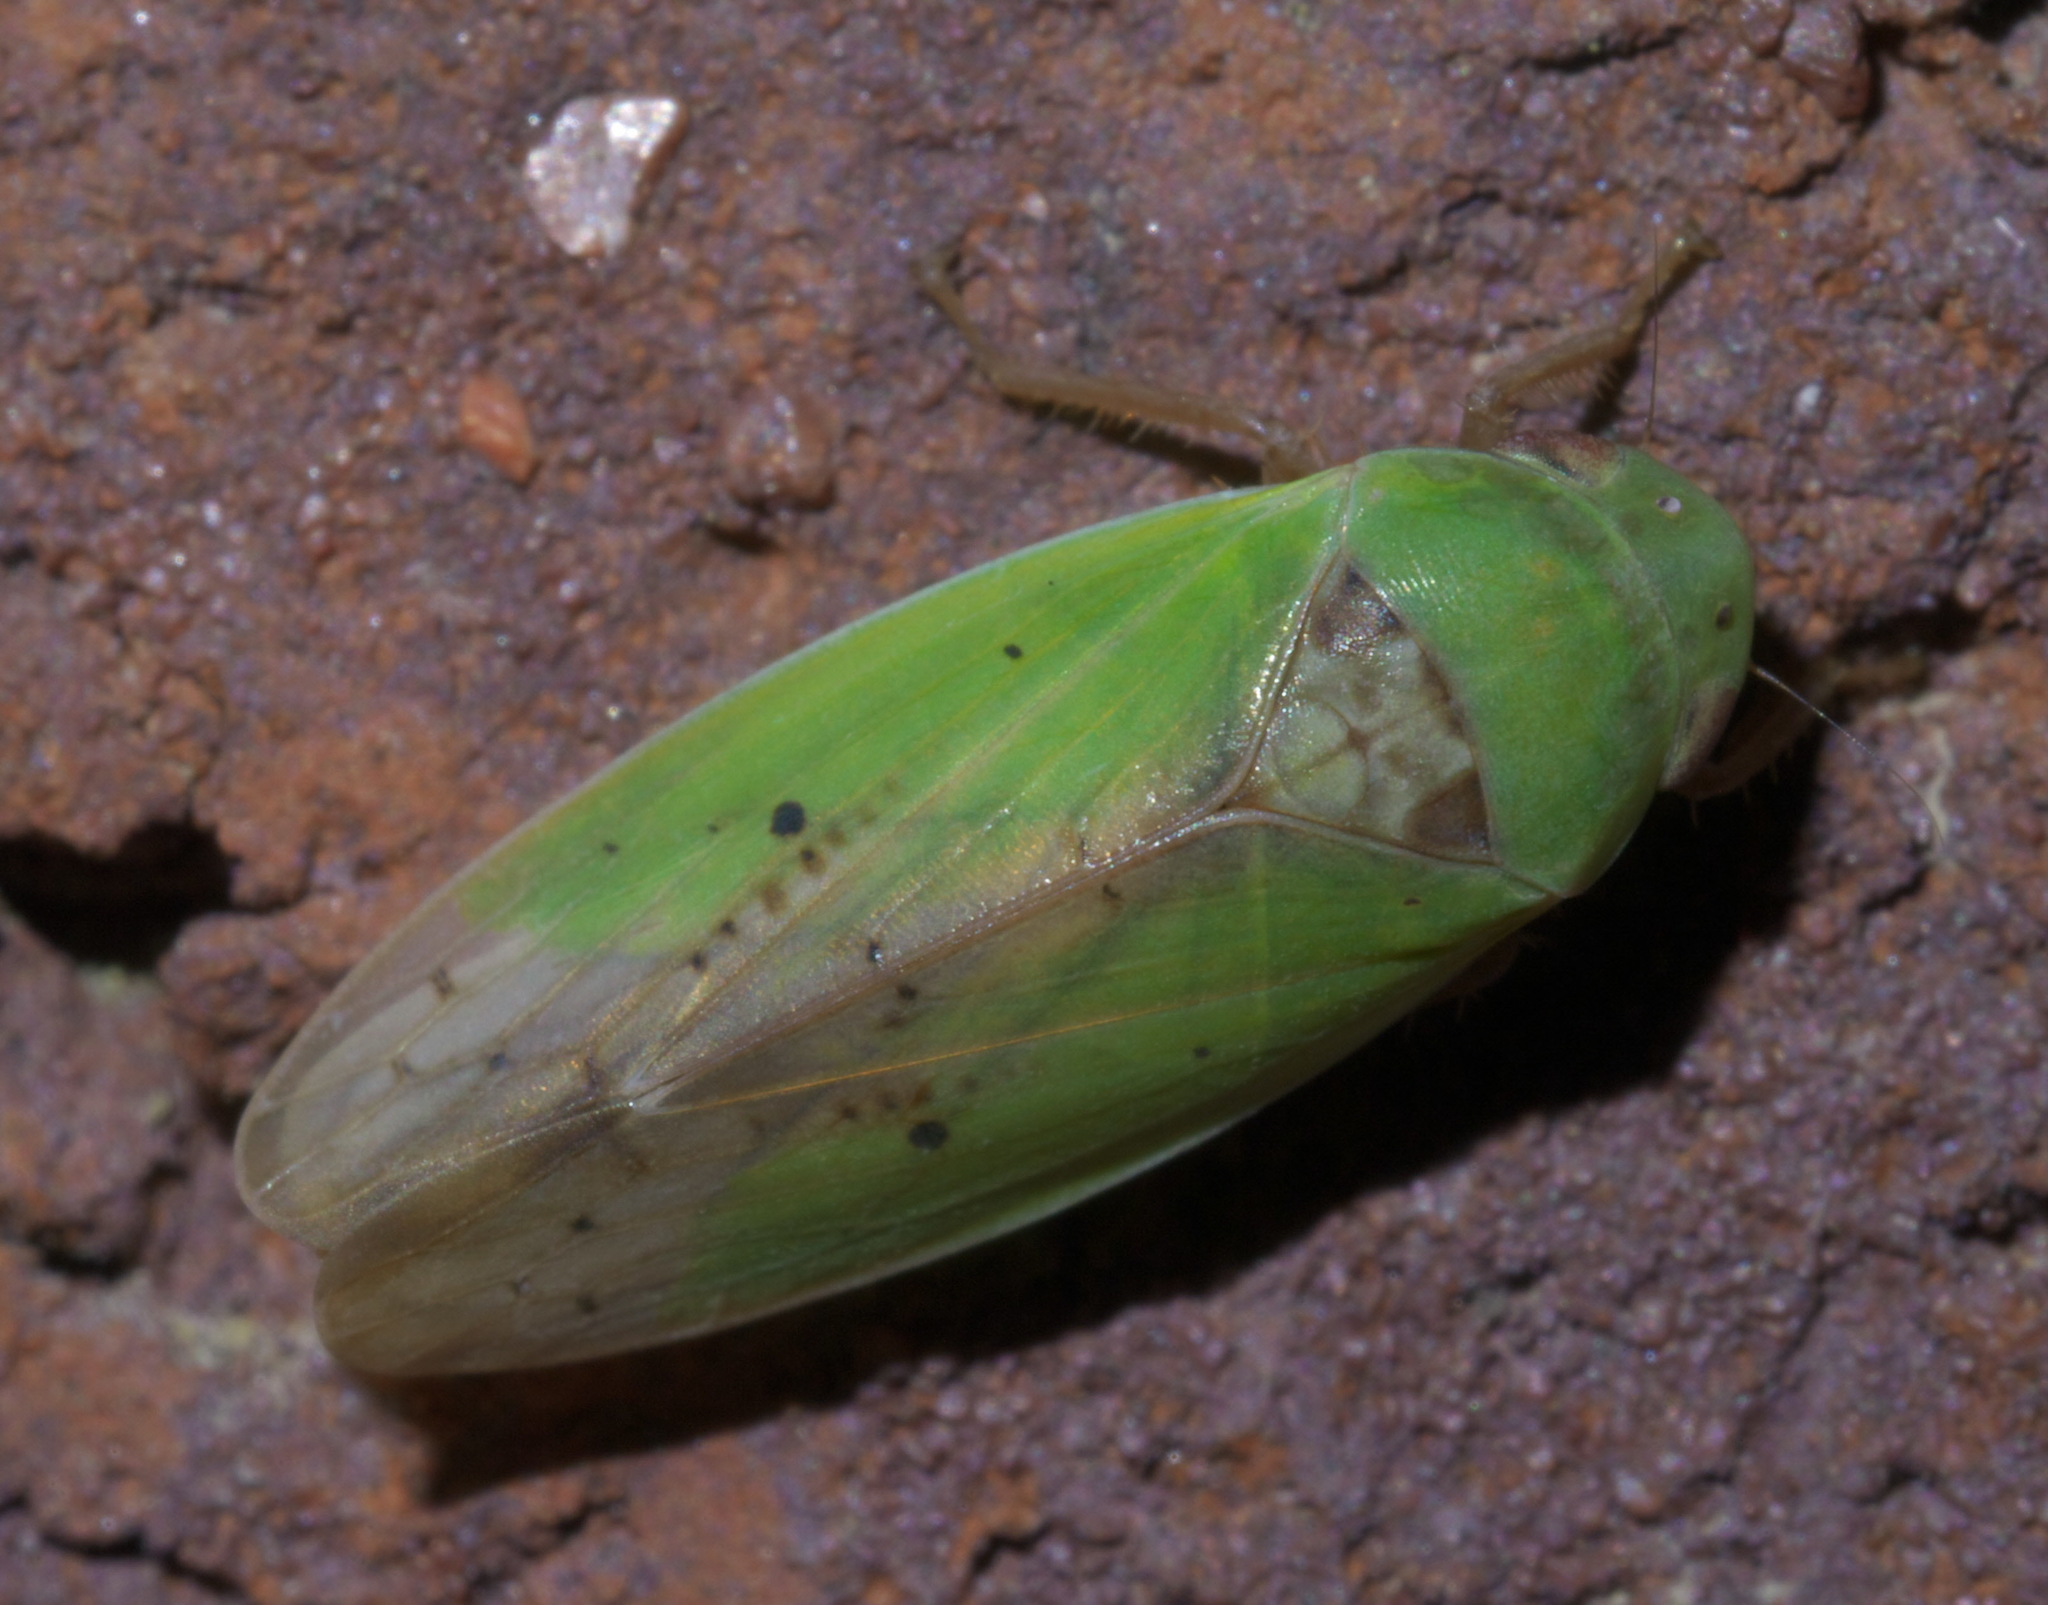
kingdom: Animalia
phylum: Arthropoda
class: Insecta
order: Hemiptera
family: Cicadellidae
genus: Ponana
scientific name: Ponana
